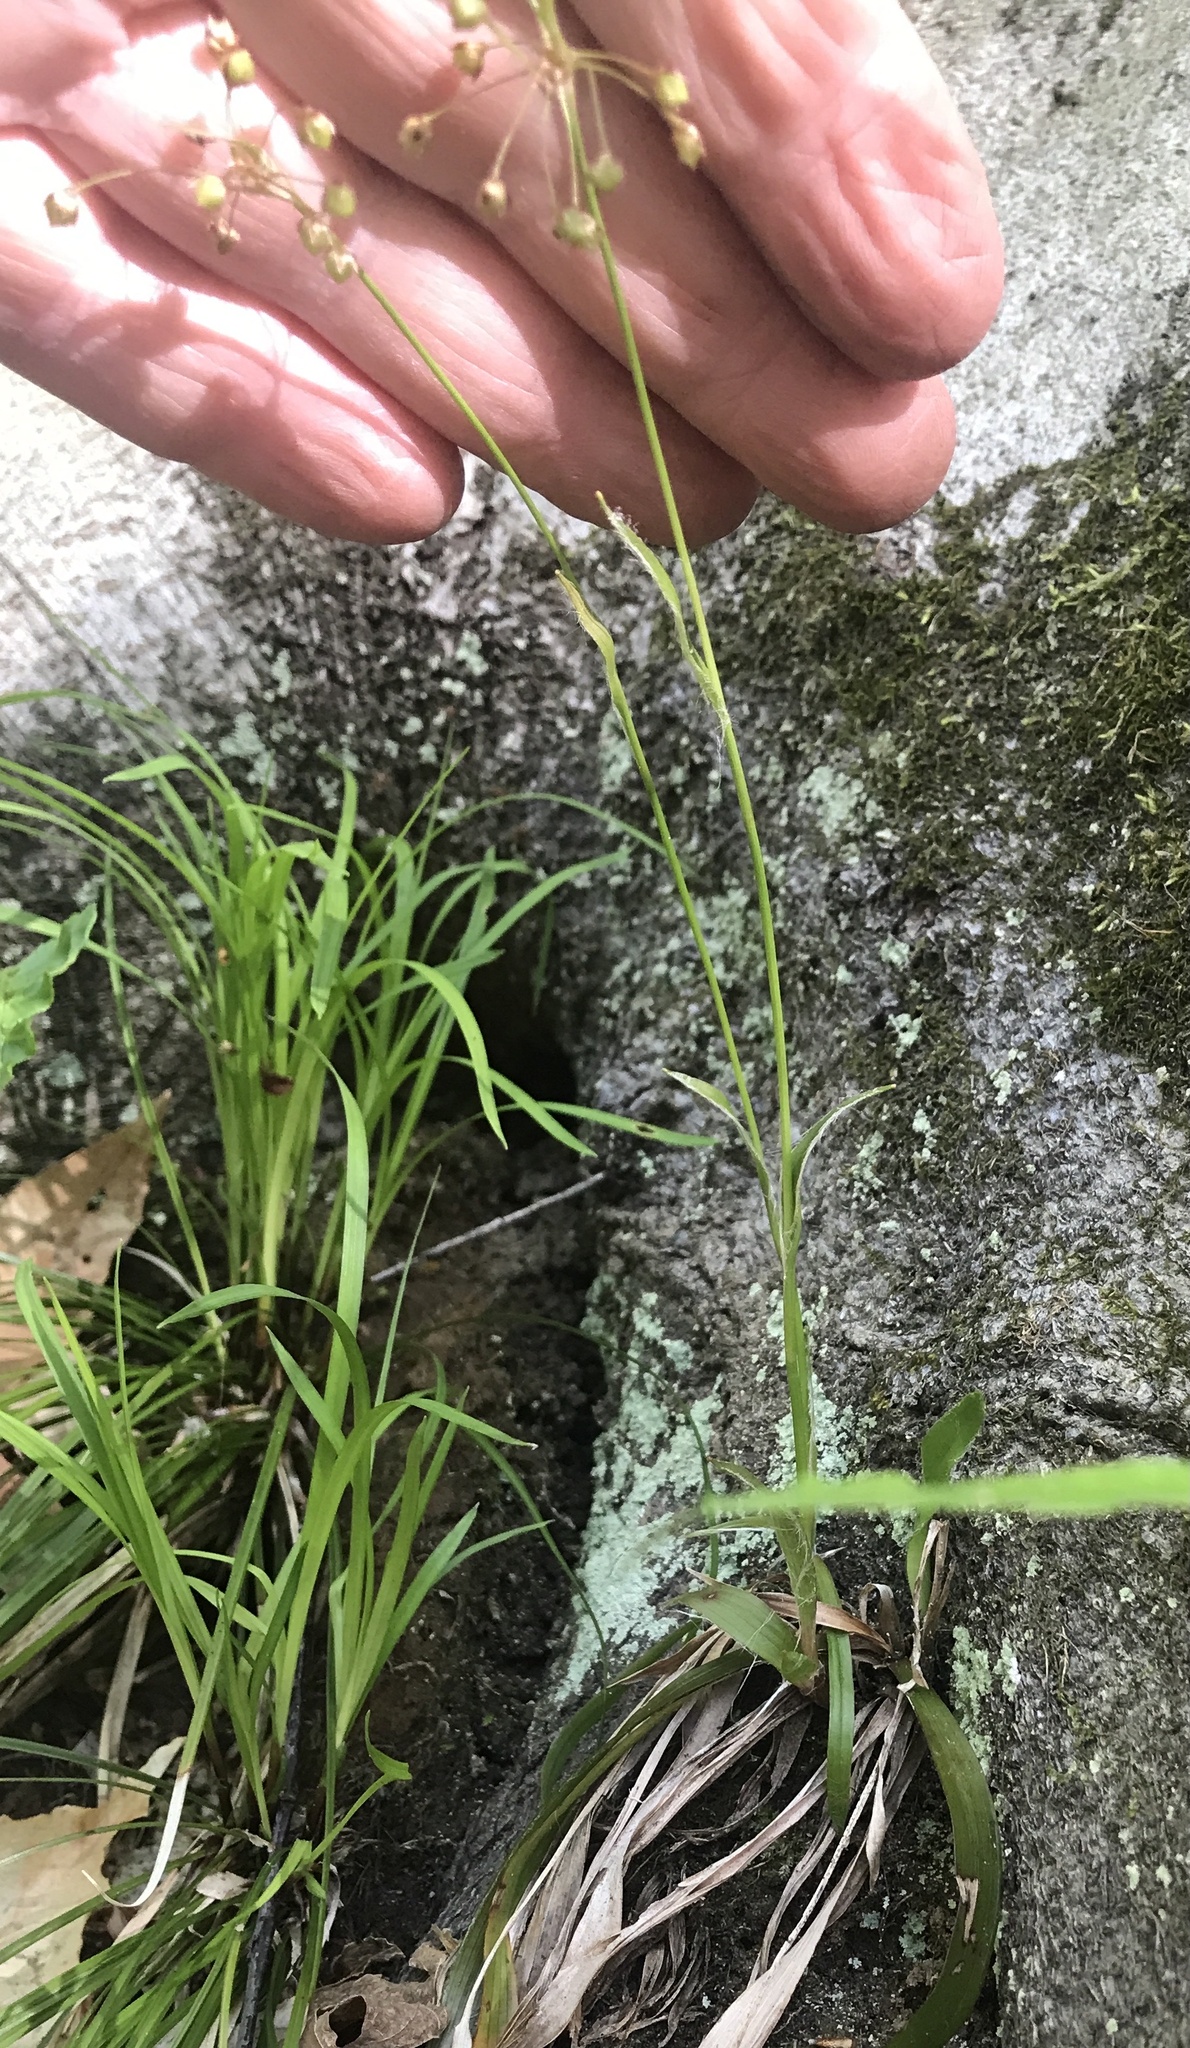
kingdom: Plantae
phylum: Tracheophyta
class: Liliopsida
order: Poales
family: Juncaceae
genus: Luzula
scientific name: Luzula acuminata
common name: Hairy woodrush
